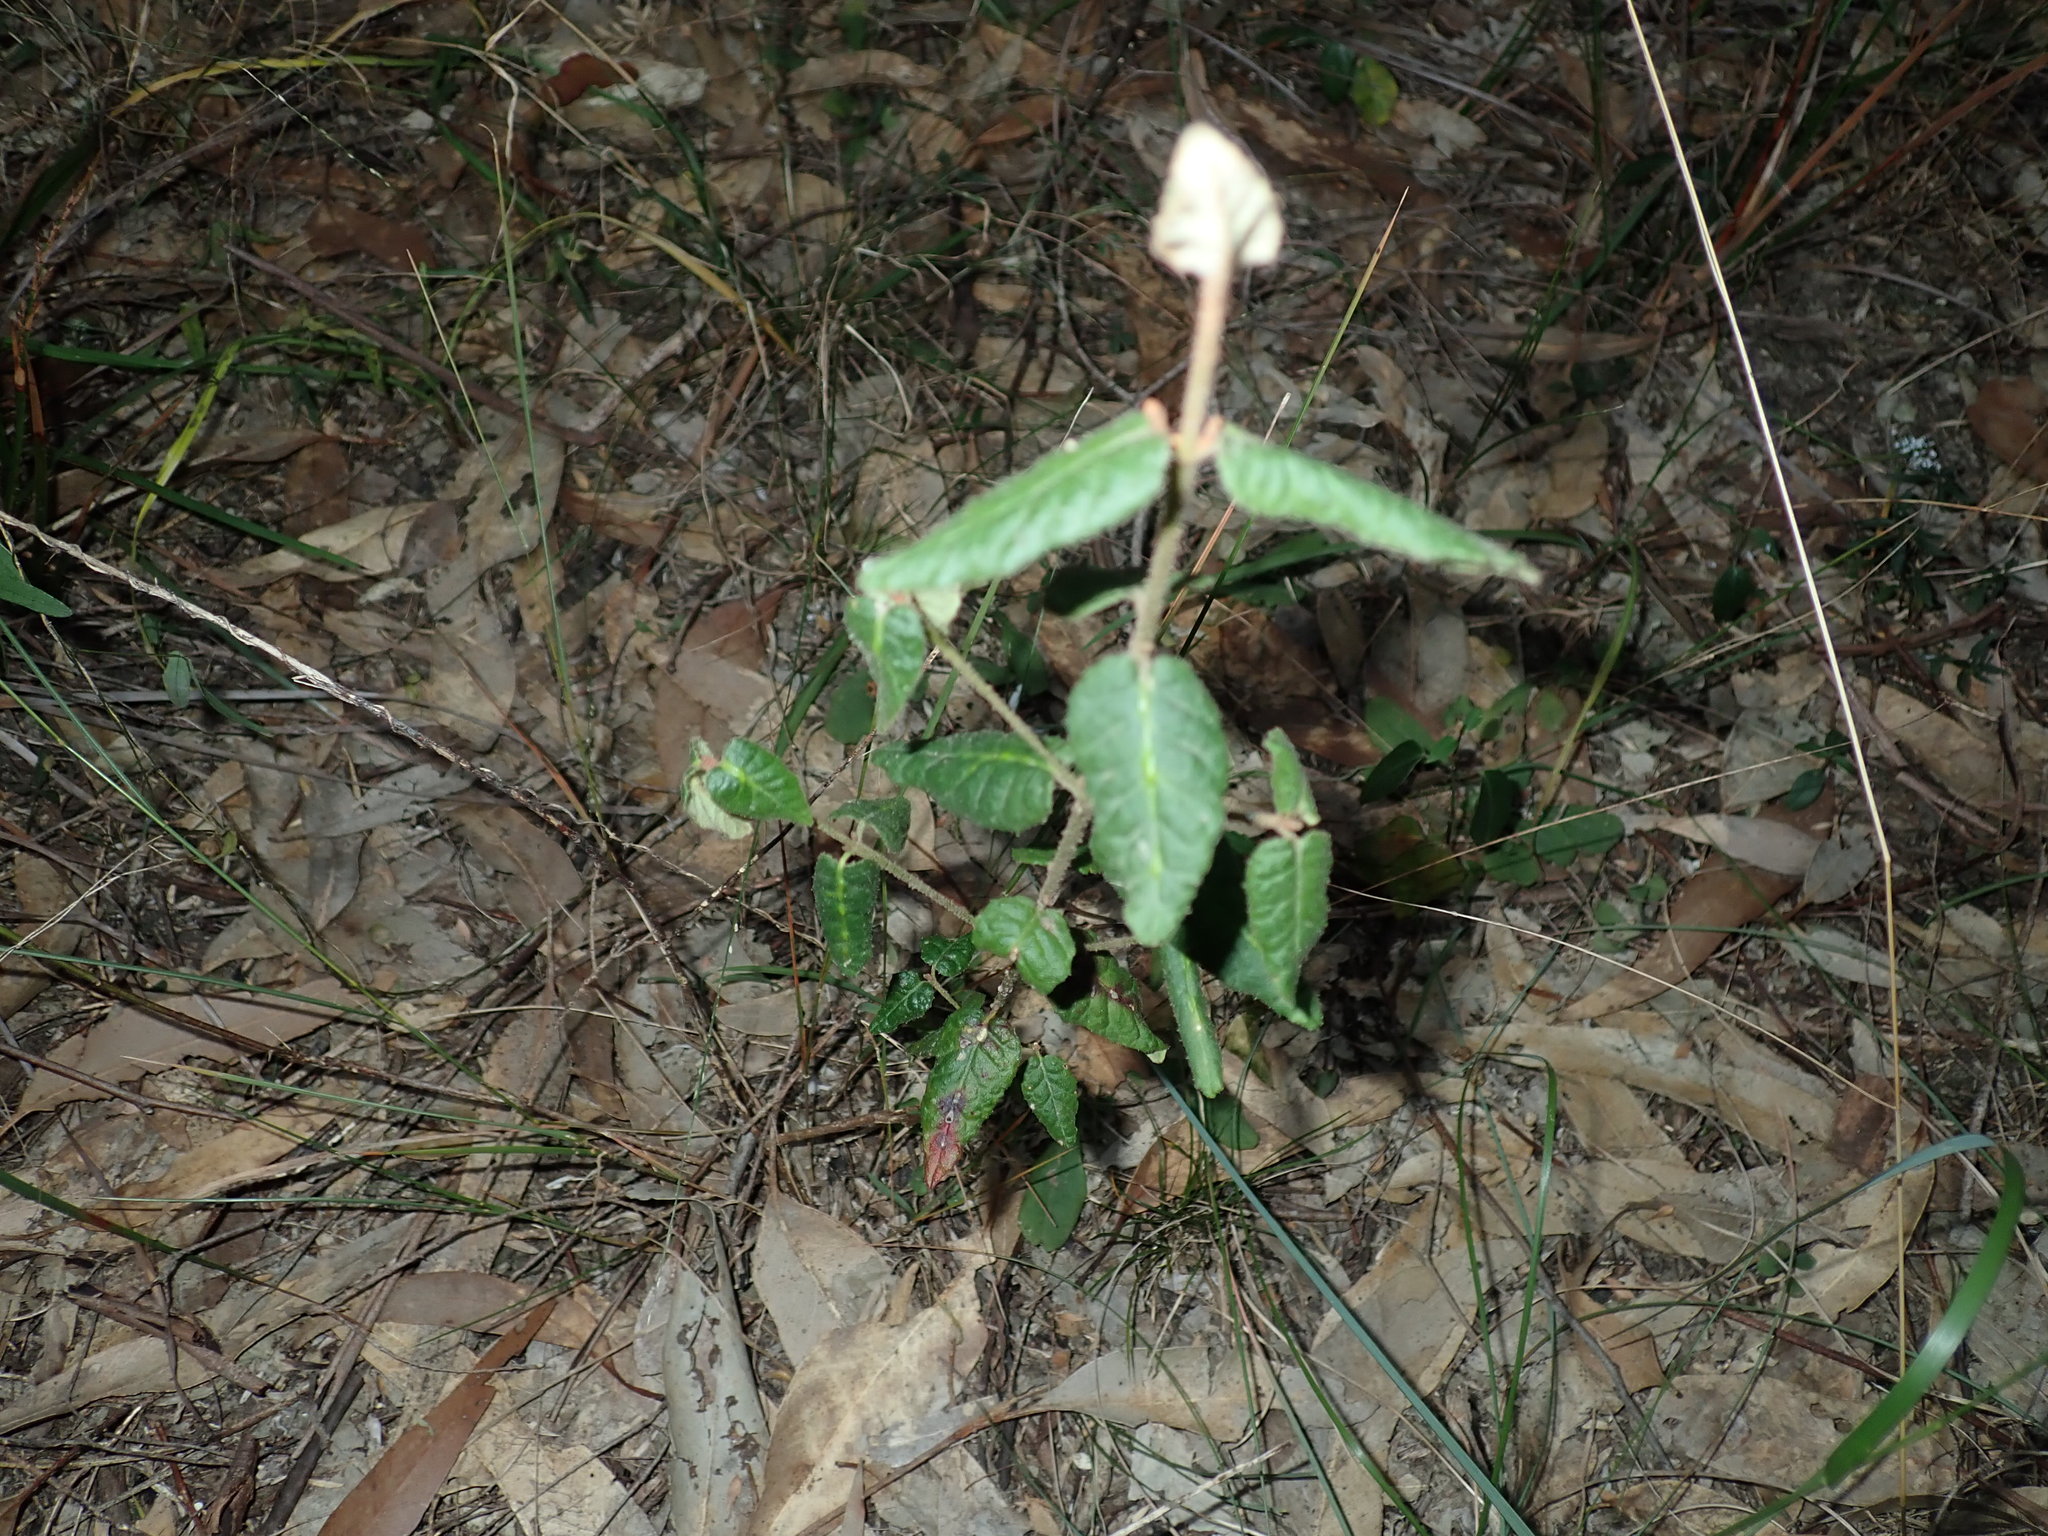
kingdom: Plantae
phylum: Tracheophyta
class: Magnoliopsida
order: Sapindales
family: Rutaceae
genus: Correa
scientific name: Correa reflexa
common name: Common correa
